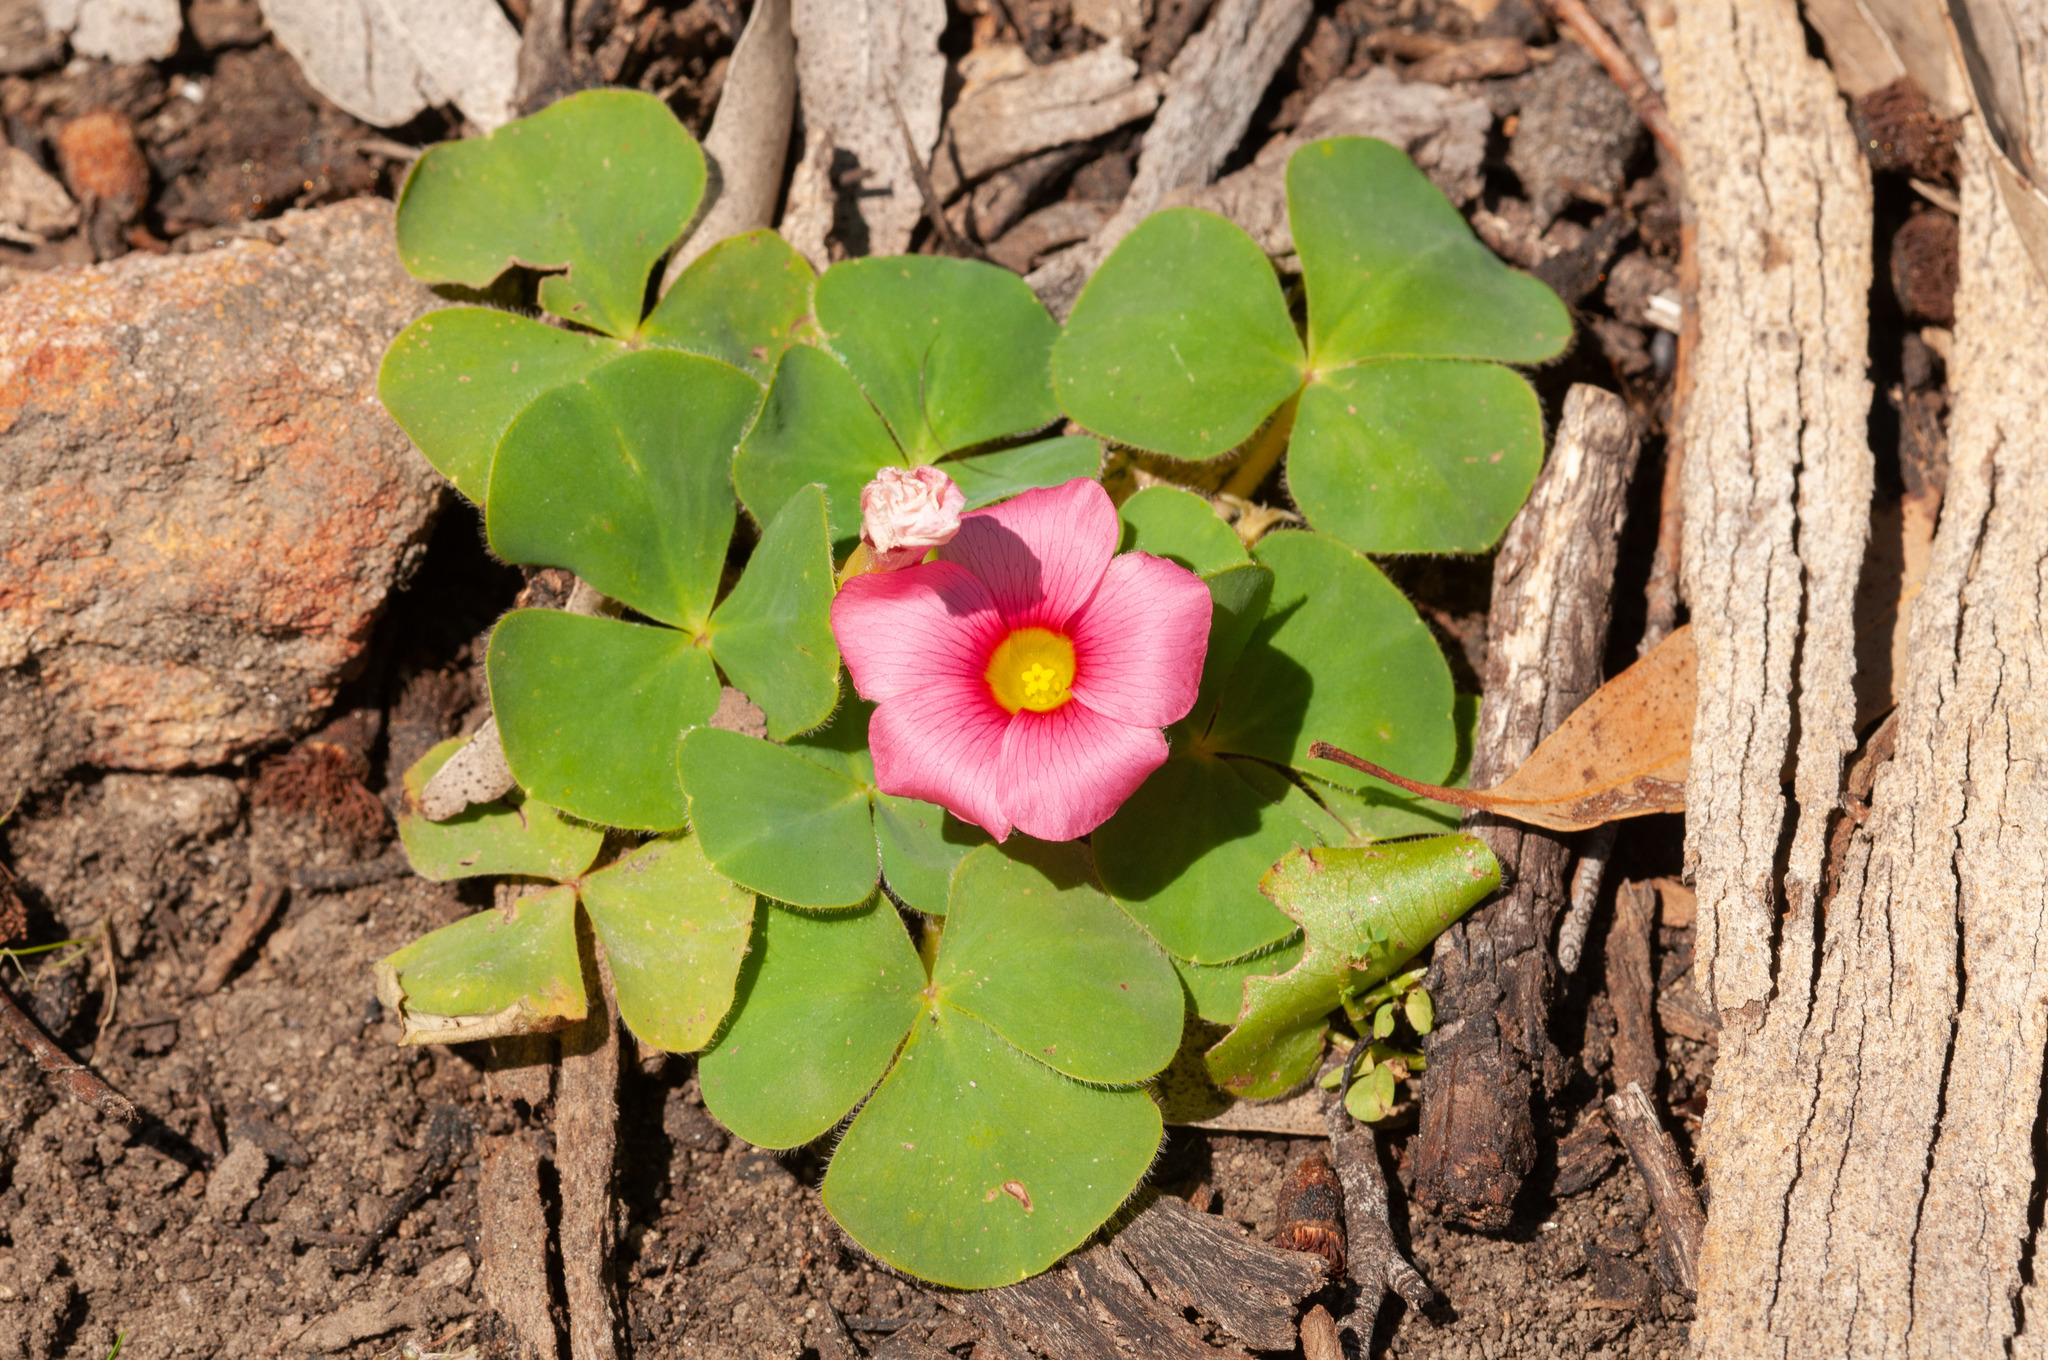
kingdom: Plantae
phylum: Tracheophyta
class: Magnoliopsida
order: Oxalidales
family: Oxalidaceae
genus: Oxalis
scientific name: Oxalis purpurea
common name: Purple woodsorrel
